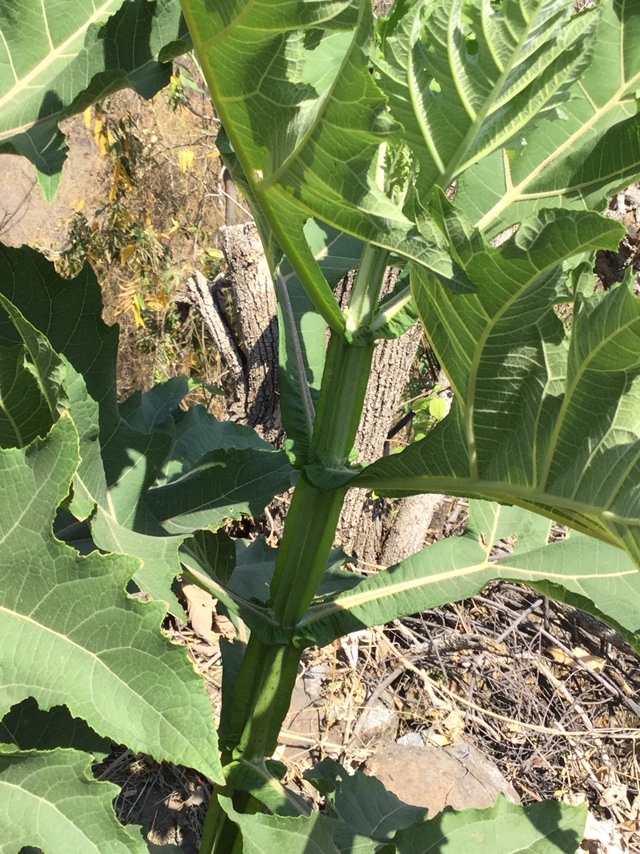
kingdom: Plantae
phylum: Tracheophyta
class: Magnoliopsida
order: Asterales
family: Asteraceae
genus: Verbesina
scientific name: Verbesina fastigiata
